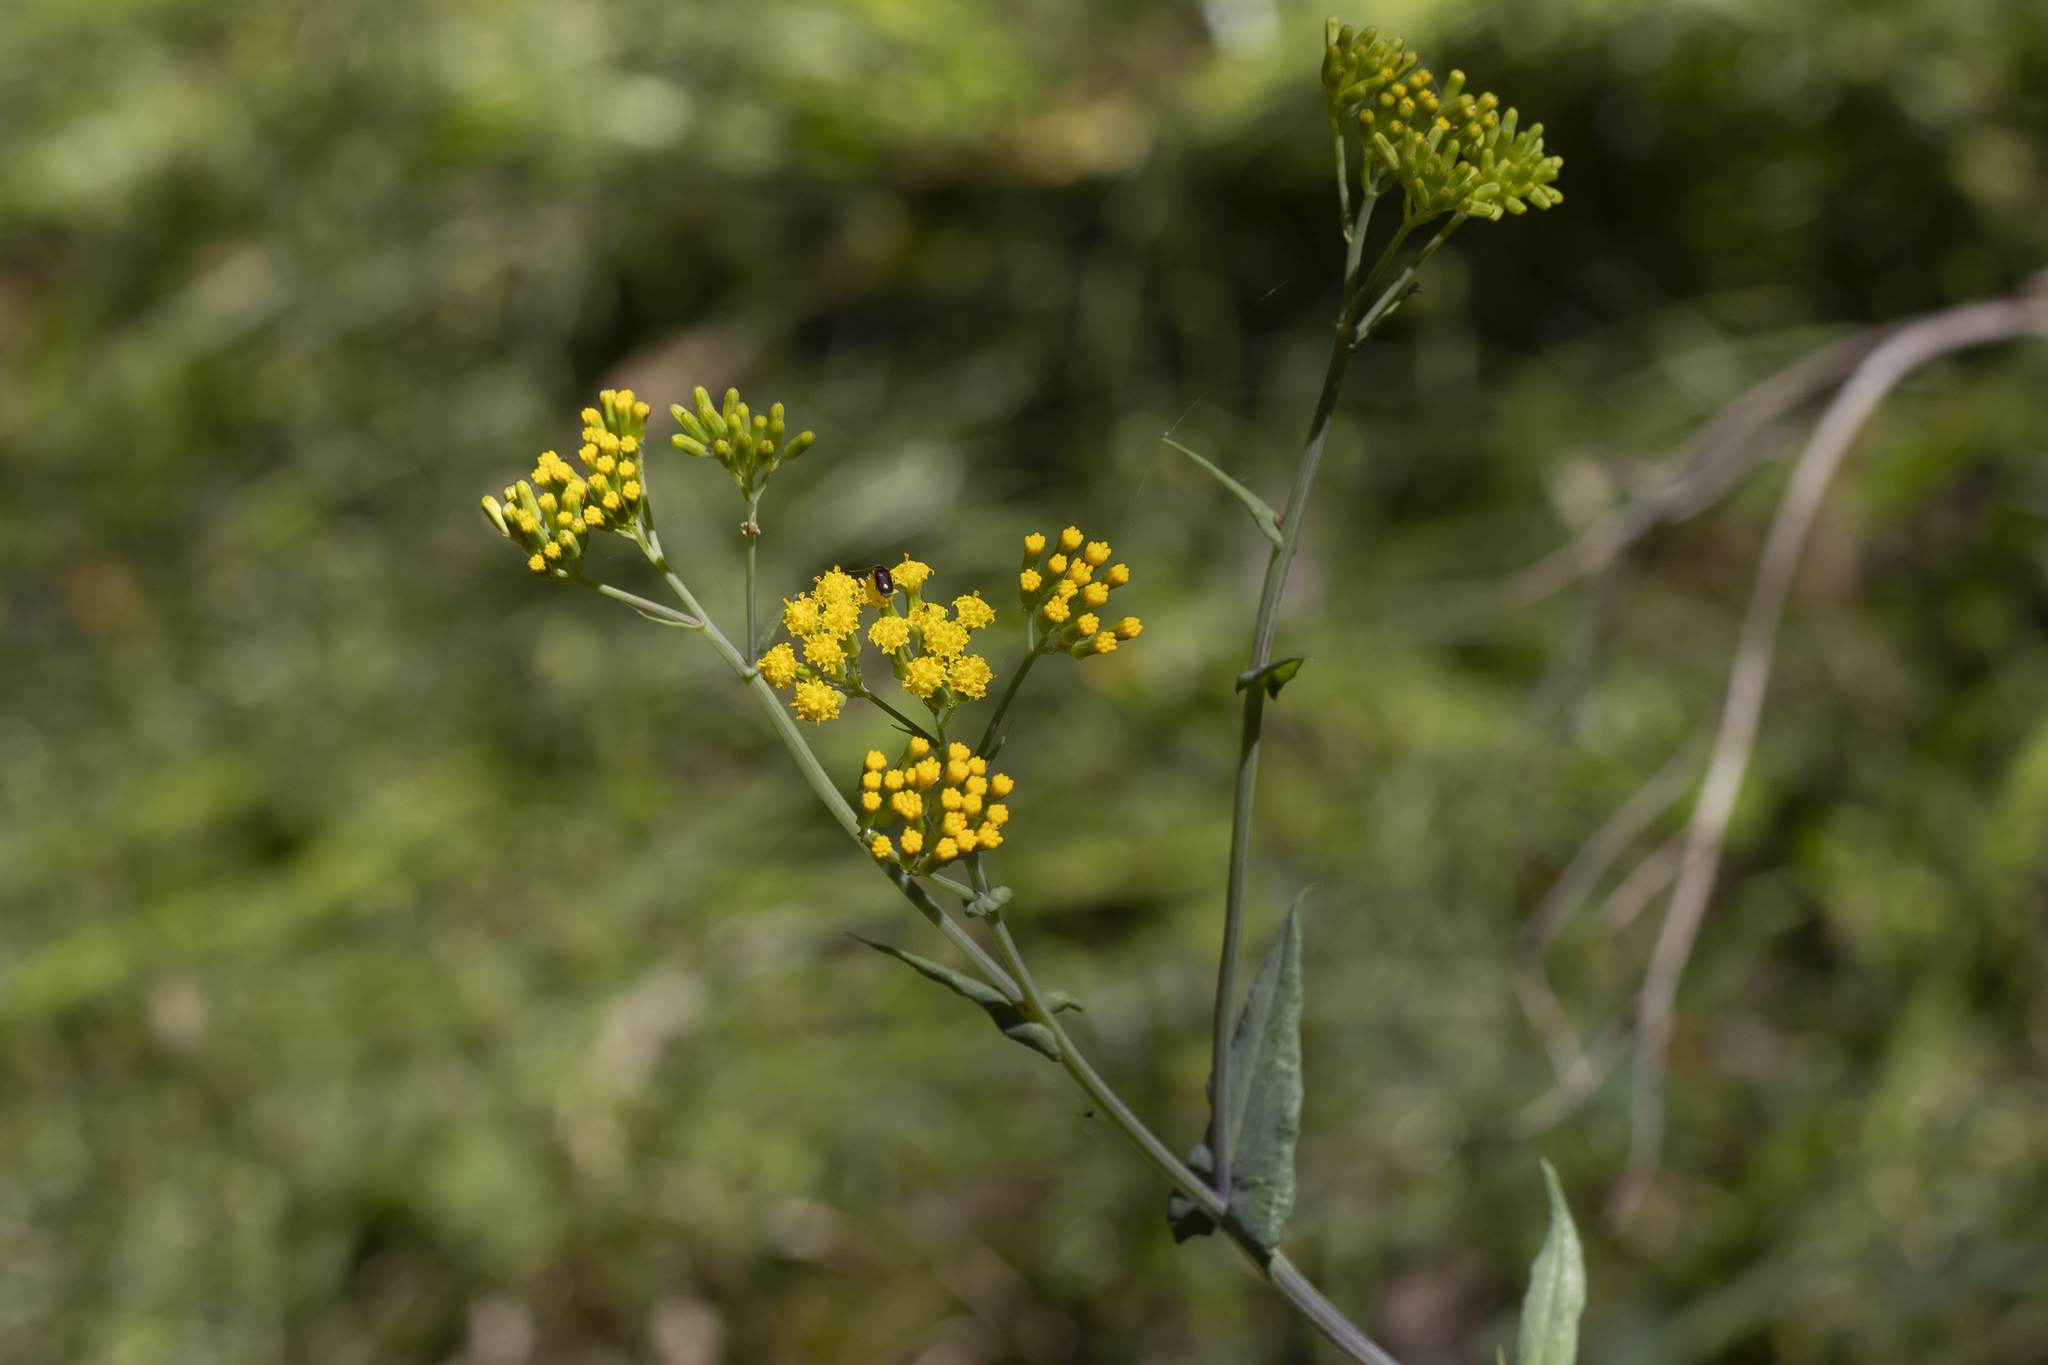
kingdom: Plantae
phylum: Tracheophyta
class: Magnoliopsida
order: Asterales
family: Asteraceae
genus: Senecio
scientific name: Senecio odoratus
